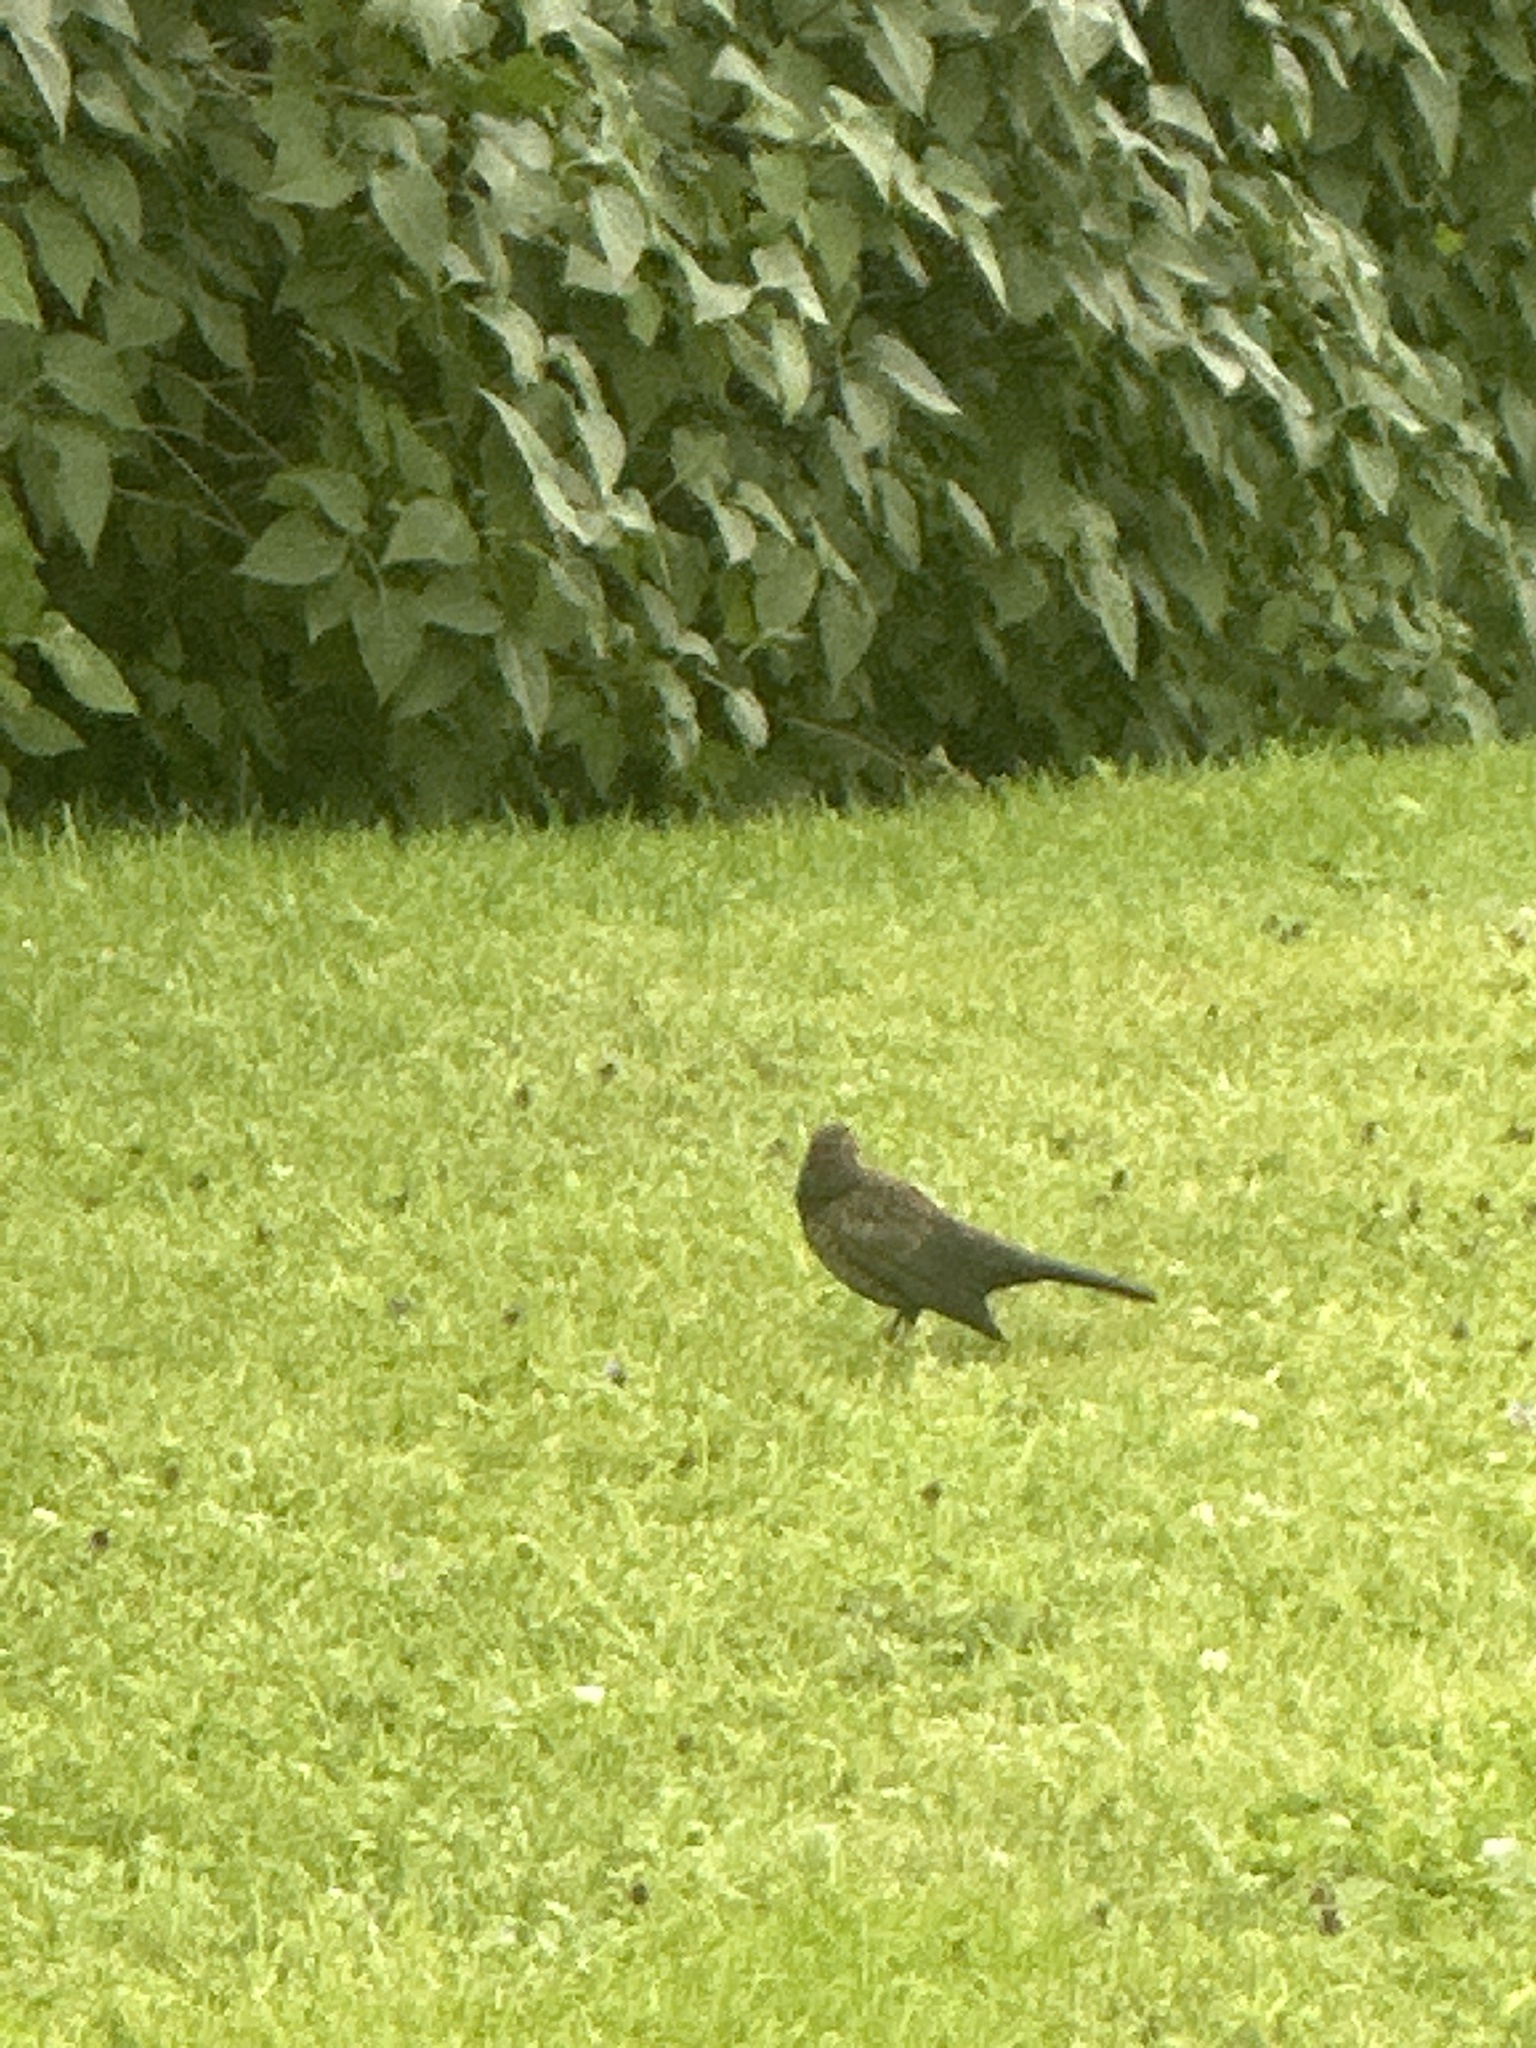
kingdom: Animalia
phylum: Chordata
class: Aves
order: Passeriformes
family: Turdidae
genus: Turdus
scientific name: Turdus merula
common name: Common blackbird
